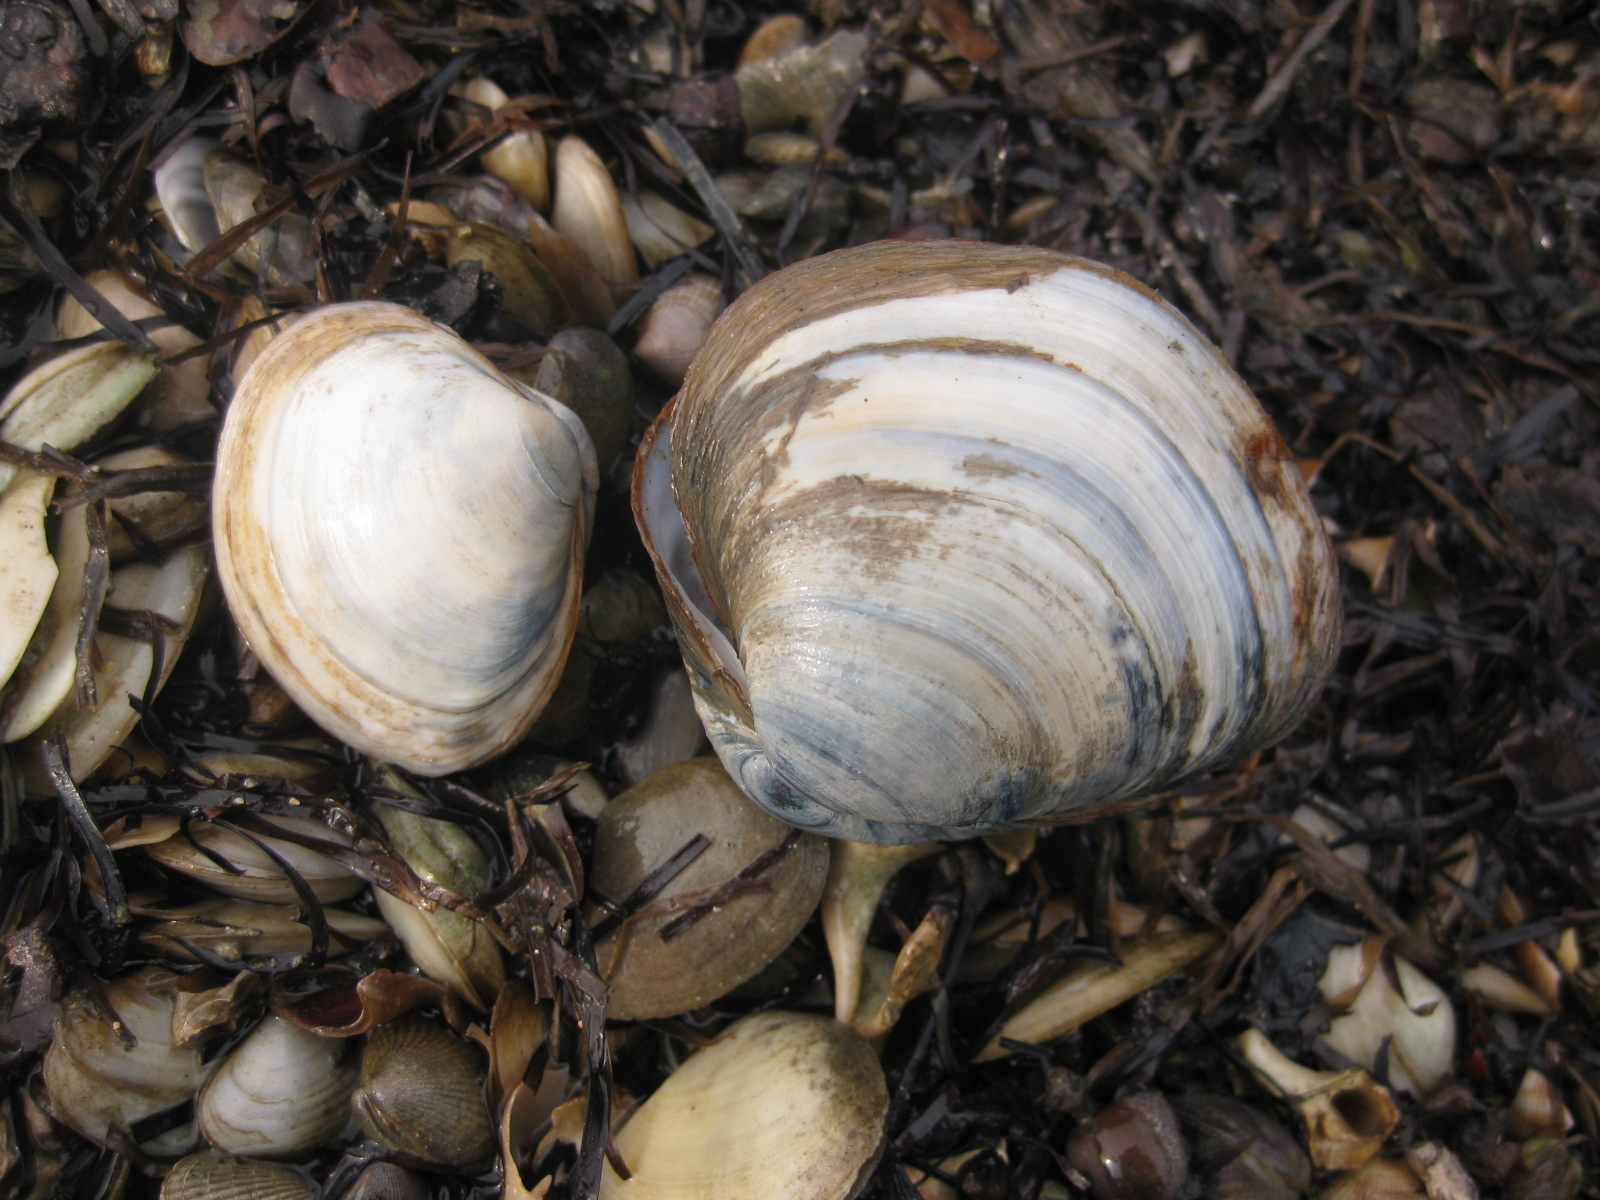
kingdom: Animalia
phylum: Mollusca
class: Bivalvia
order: Venerida
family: Mactridae
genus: Cyclomactra
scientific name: Cyclomactra ovata
